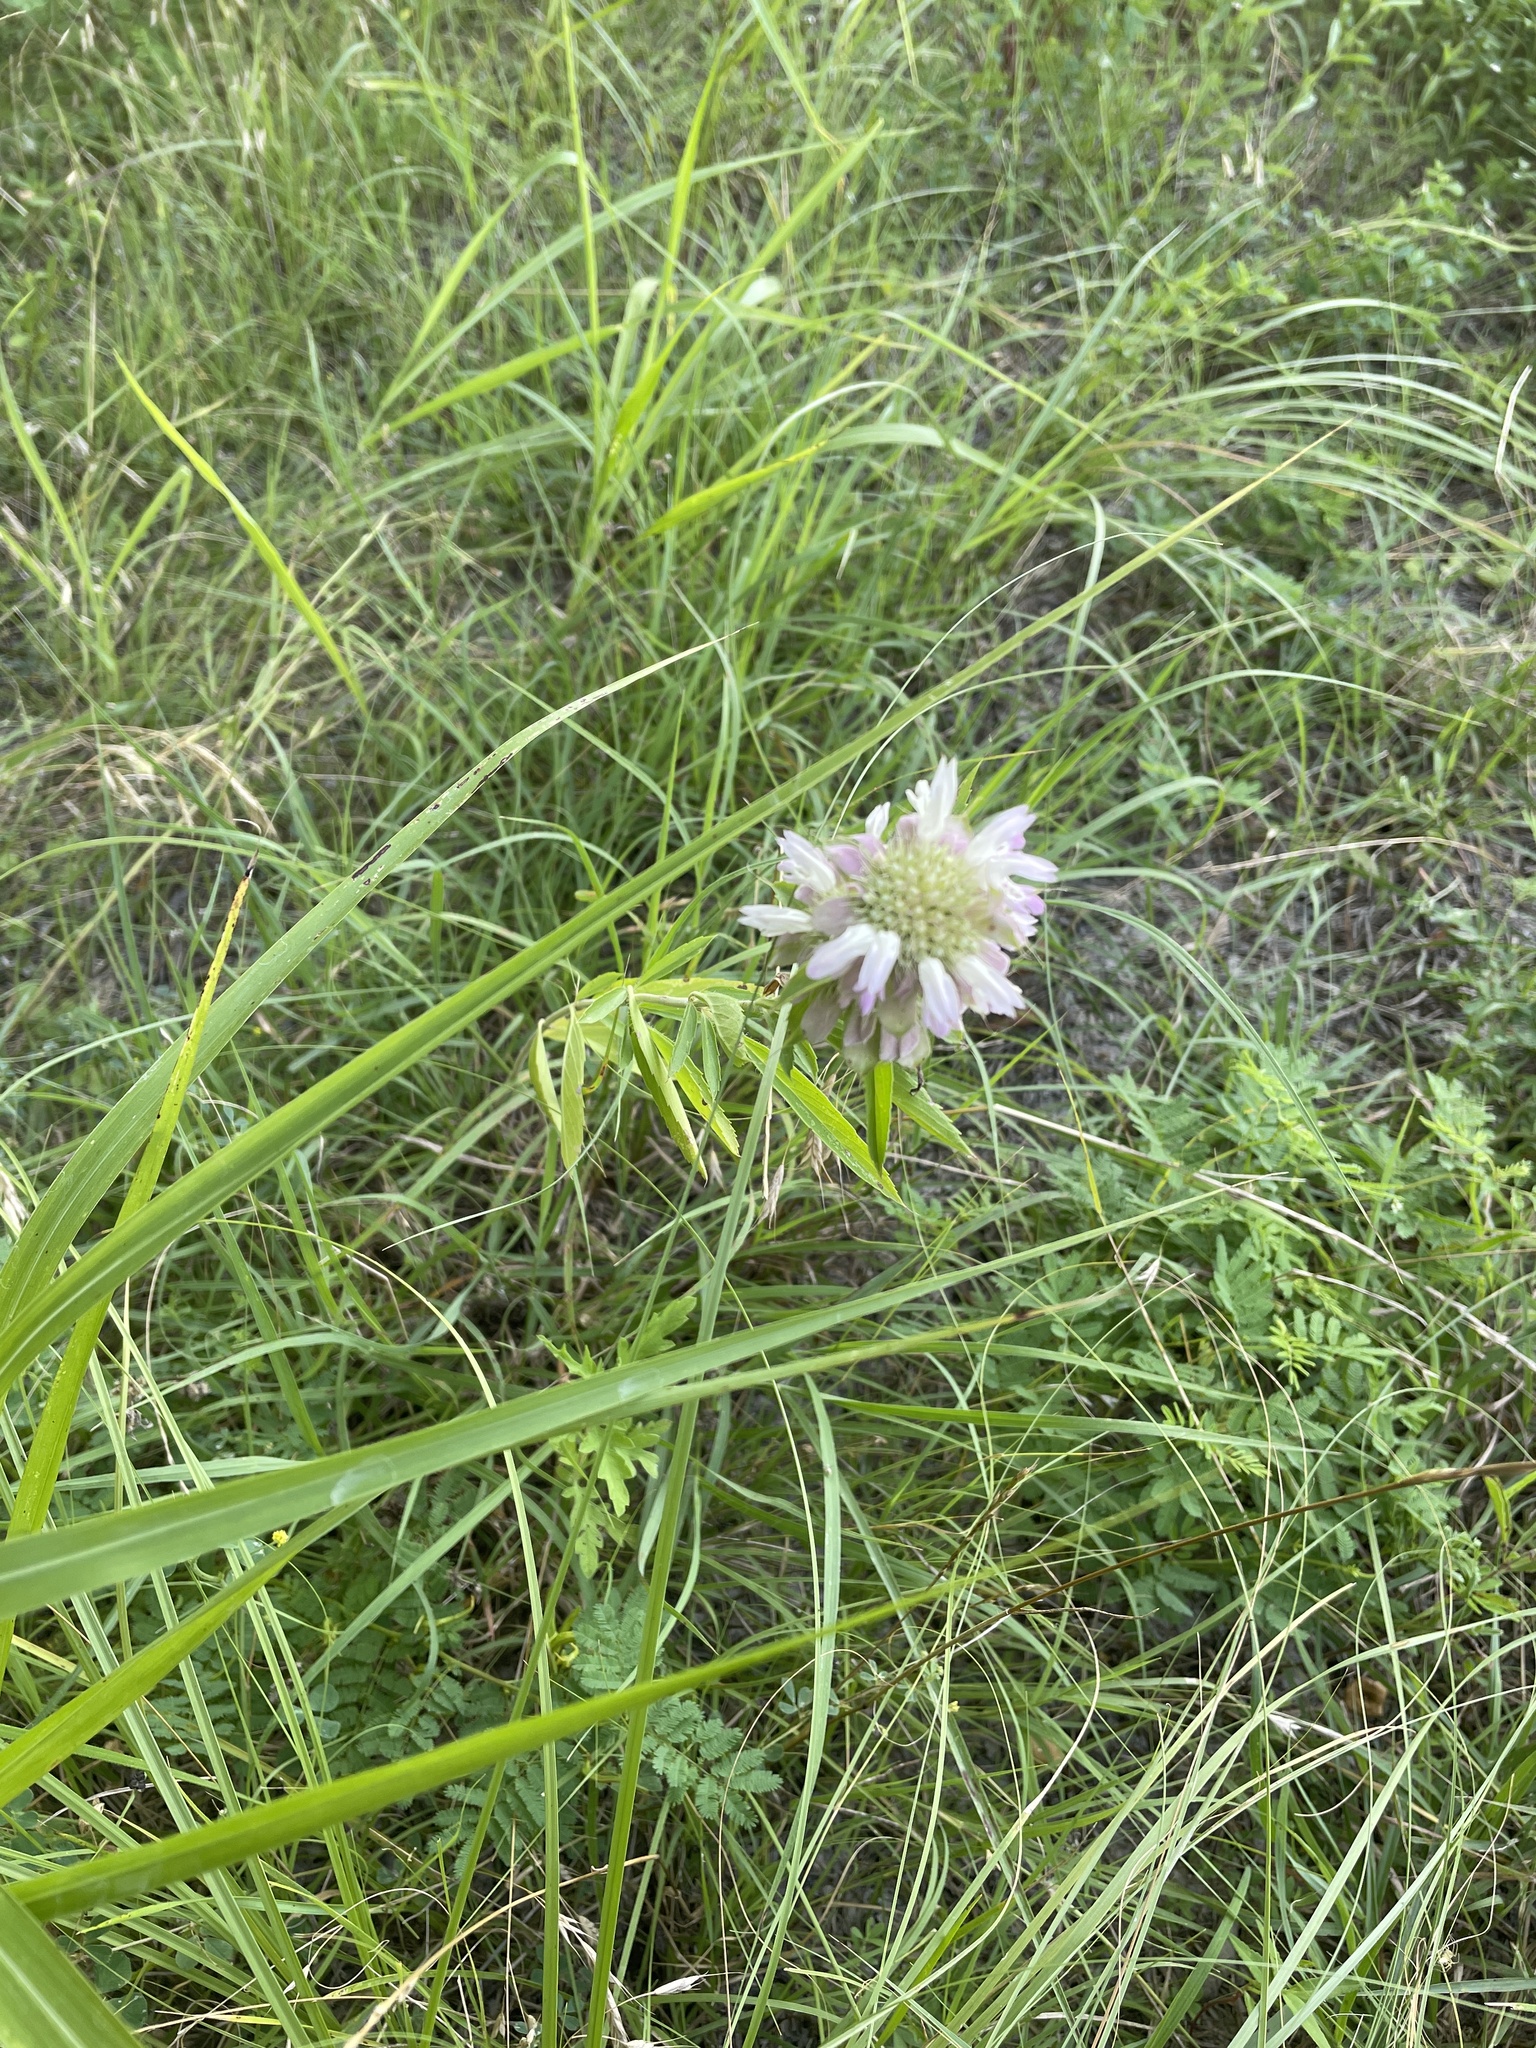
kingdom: Plantae
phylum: Tracheophyta
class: Magnoliopsida
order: Lamiales
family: Lamiaceae
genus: Monarda
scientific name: Monarda citriodora
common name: Lemon beebalm
